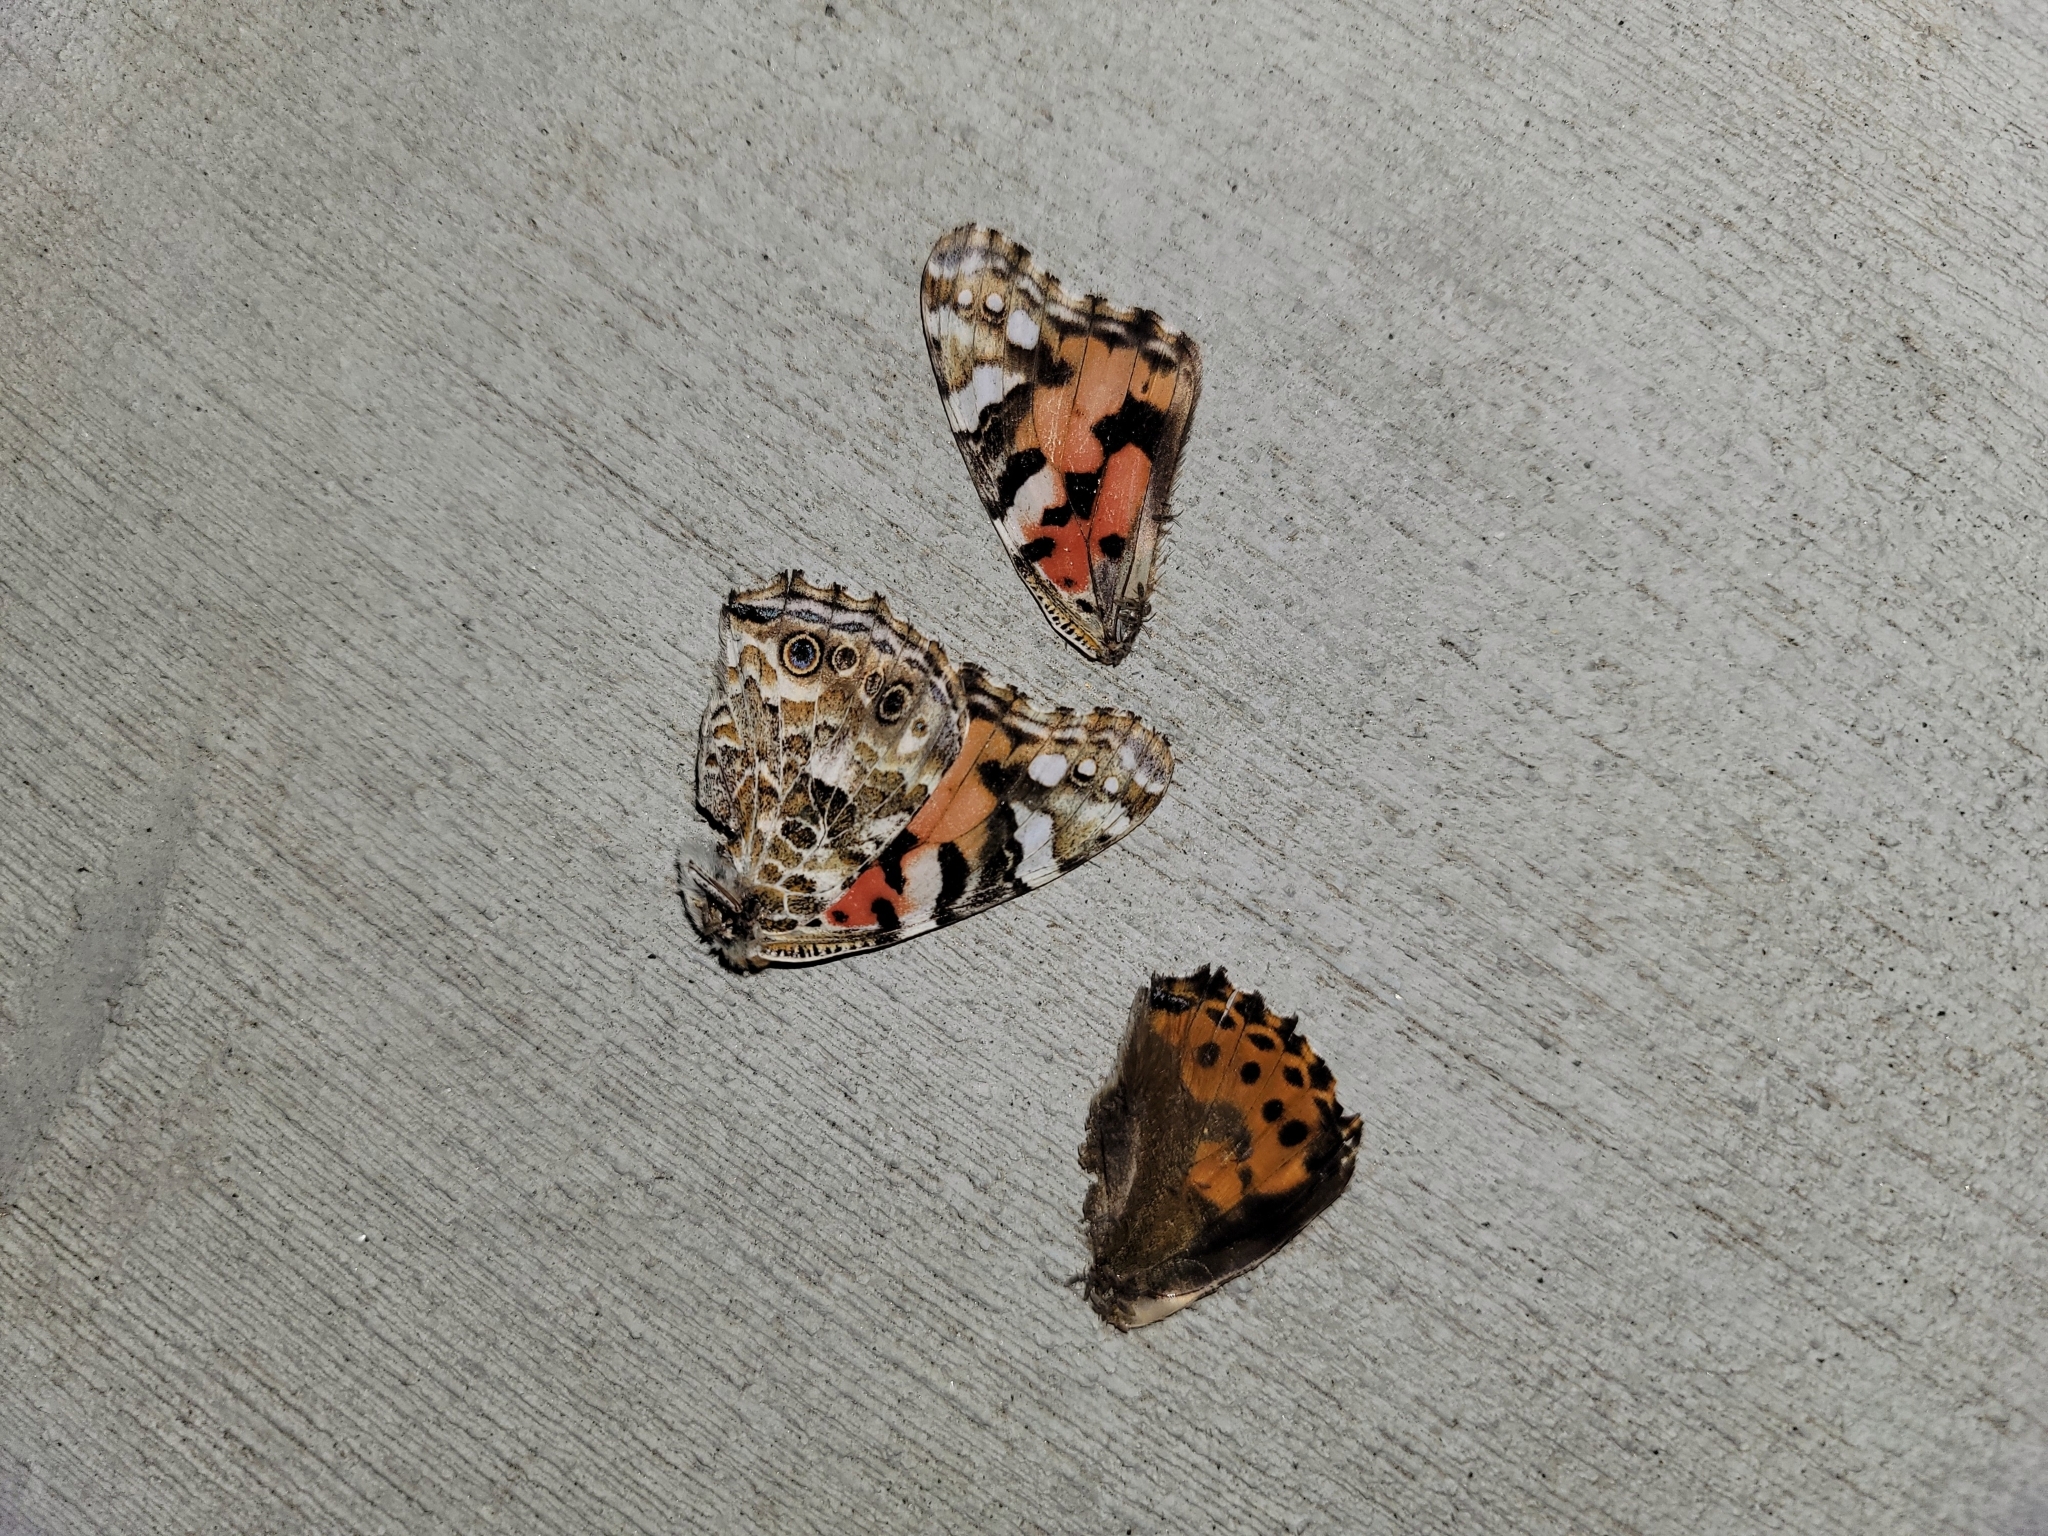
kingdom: Animalia
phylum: Arthropoda
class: Insecta
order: Lepidoptera
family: Nymphalidae
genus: Vanessa
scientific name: Vanessa cardui
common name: Painted lady
